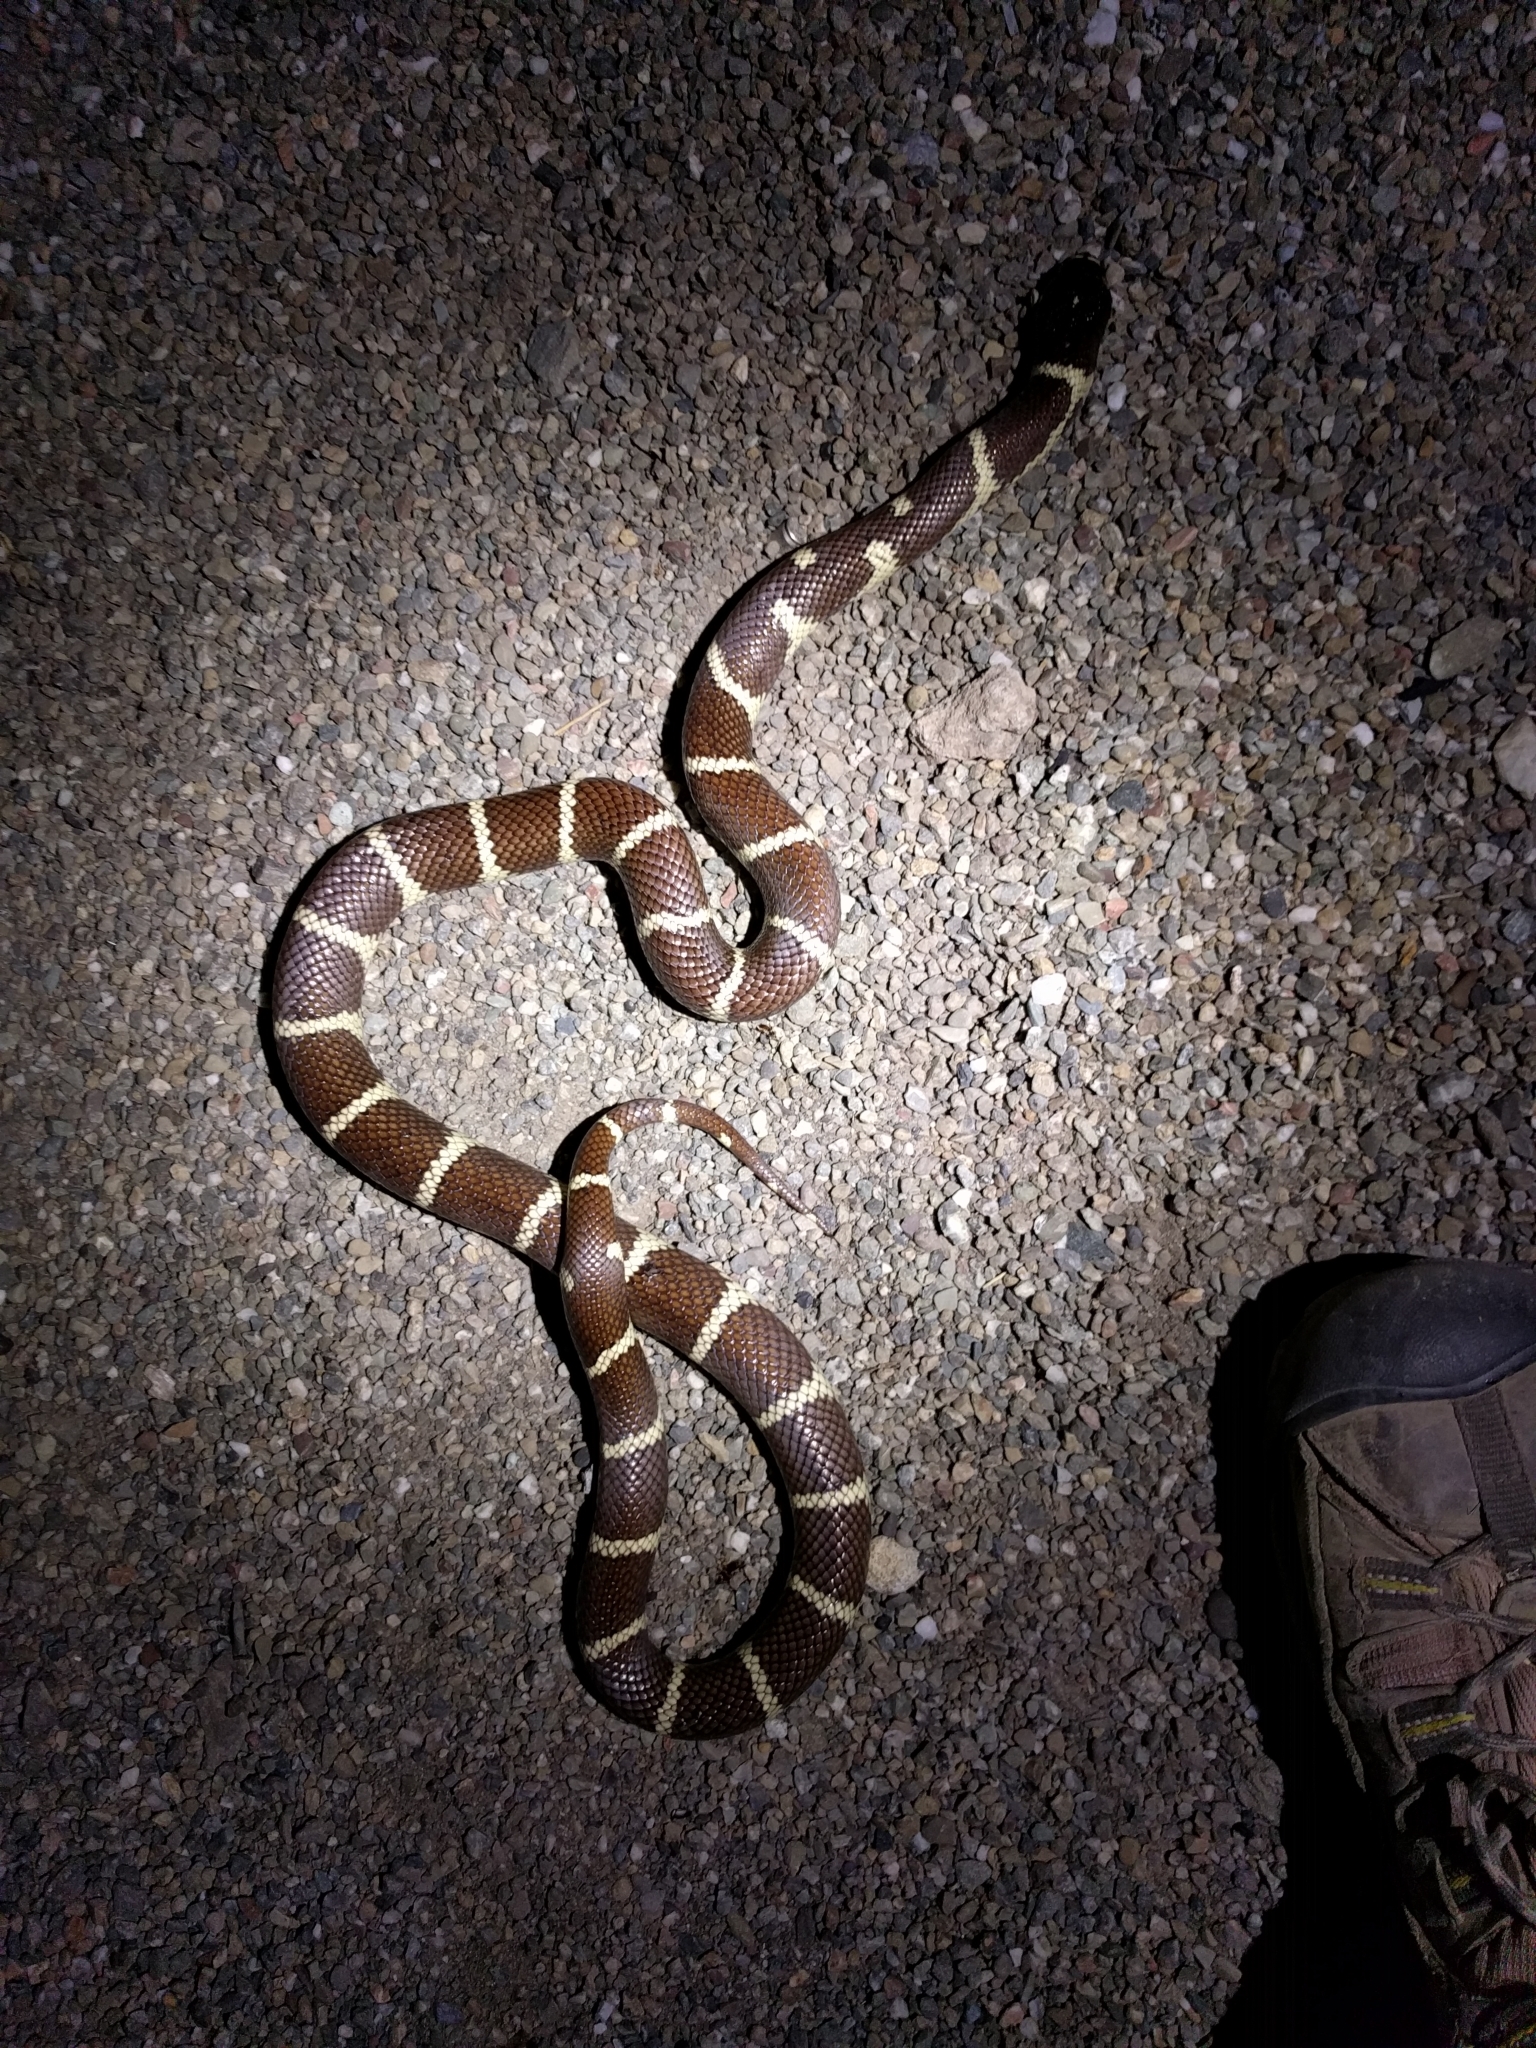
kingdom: Animalia
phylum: Chordata
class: Squamata
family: Colubridae
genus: Lampropeltis
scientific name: Lampropeltis californiae
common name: California kingsnake
